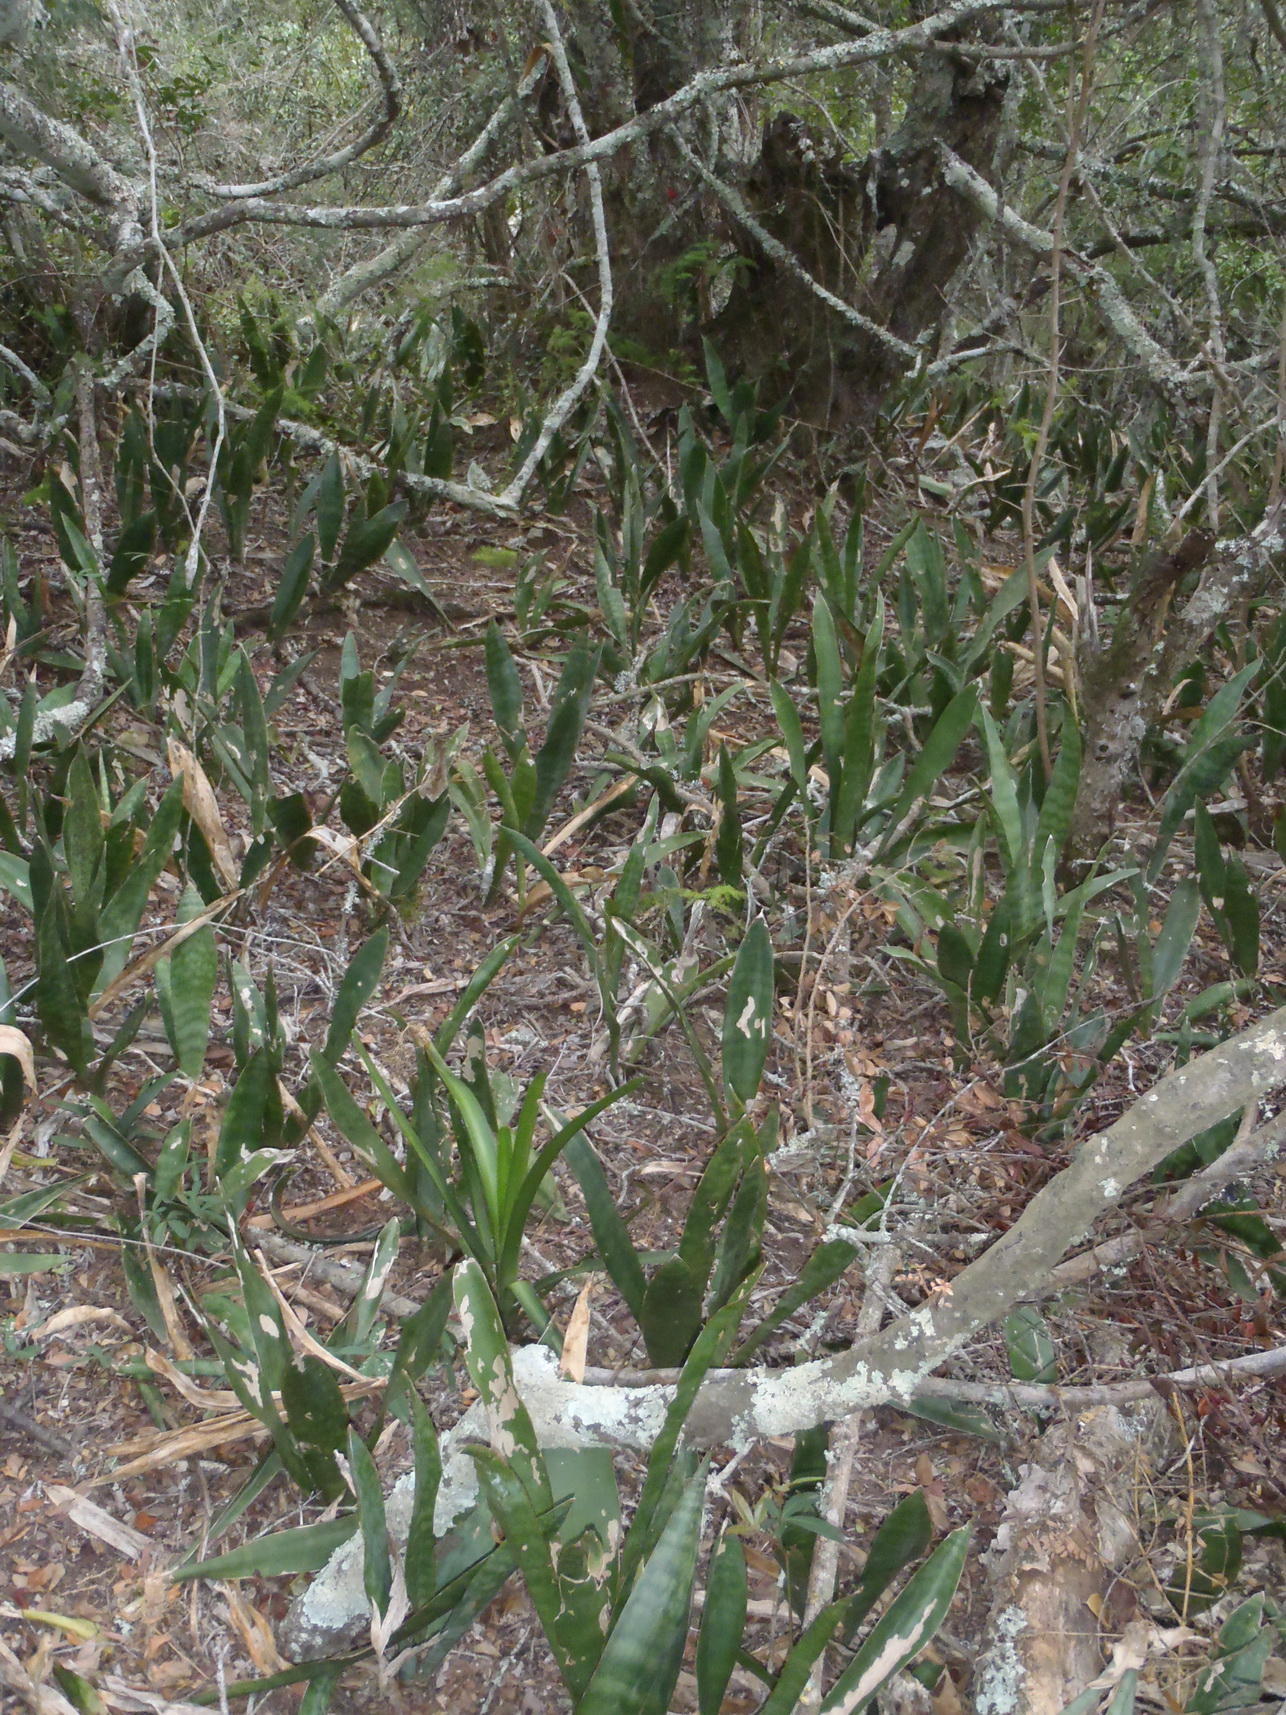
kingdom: Plantae
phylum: Tracheophyta
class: Liliopsida
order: Asparagales
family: Asparagaceae
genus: Dracaena
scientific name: Dracaena hyacinthoides
